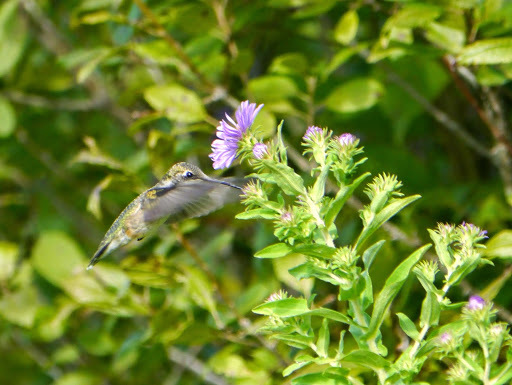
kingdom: Animalia
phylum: Chordata
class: Aves
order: Apodiformes
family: Trochilidae
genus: Archilochus
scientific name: Archilochus colubris
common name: Ruby-throated hummingbird
